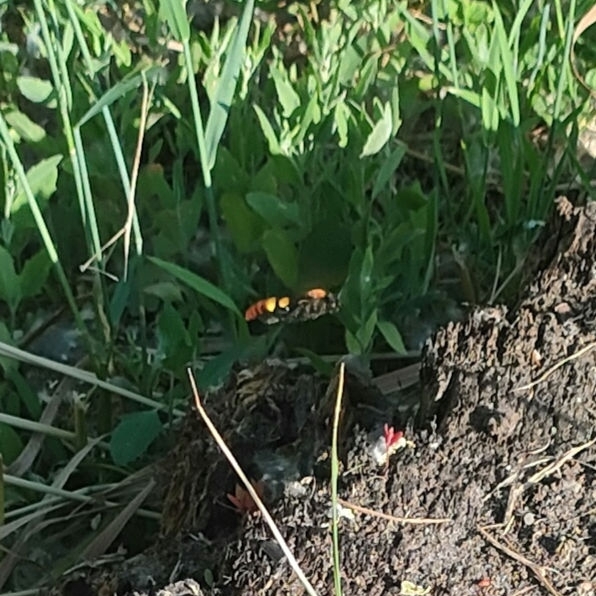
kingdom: Animalia
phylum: Arthropoda
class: Insecta
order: Hymenoptera
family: Scoliidae
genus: Megascolia
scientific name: Megascolia maculata
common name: Mammoth wasp
